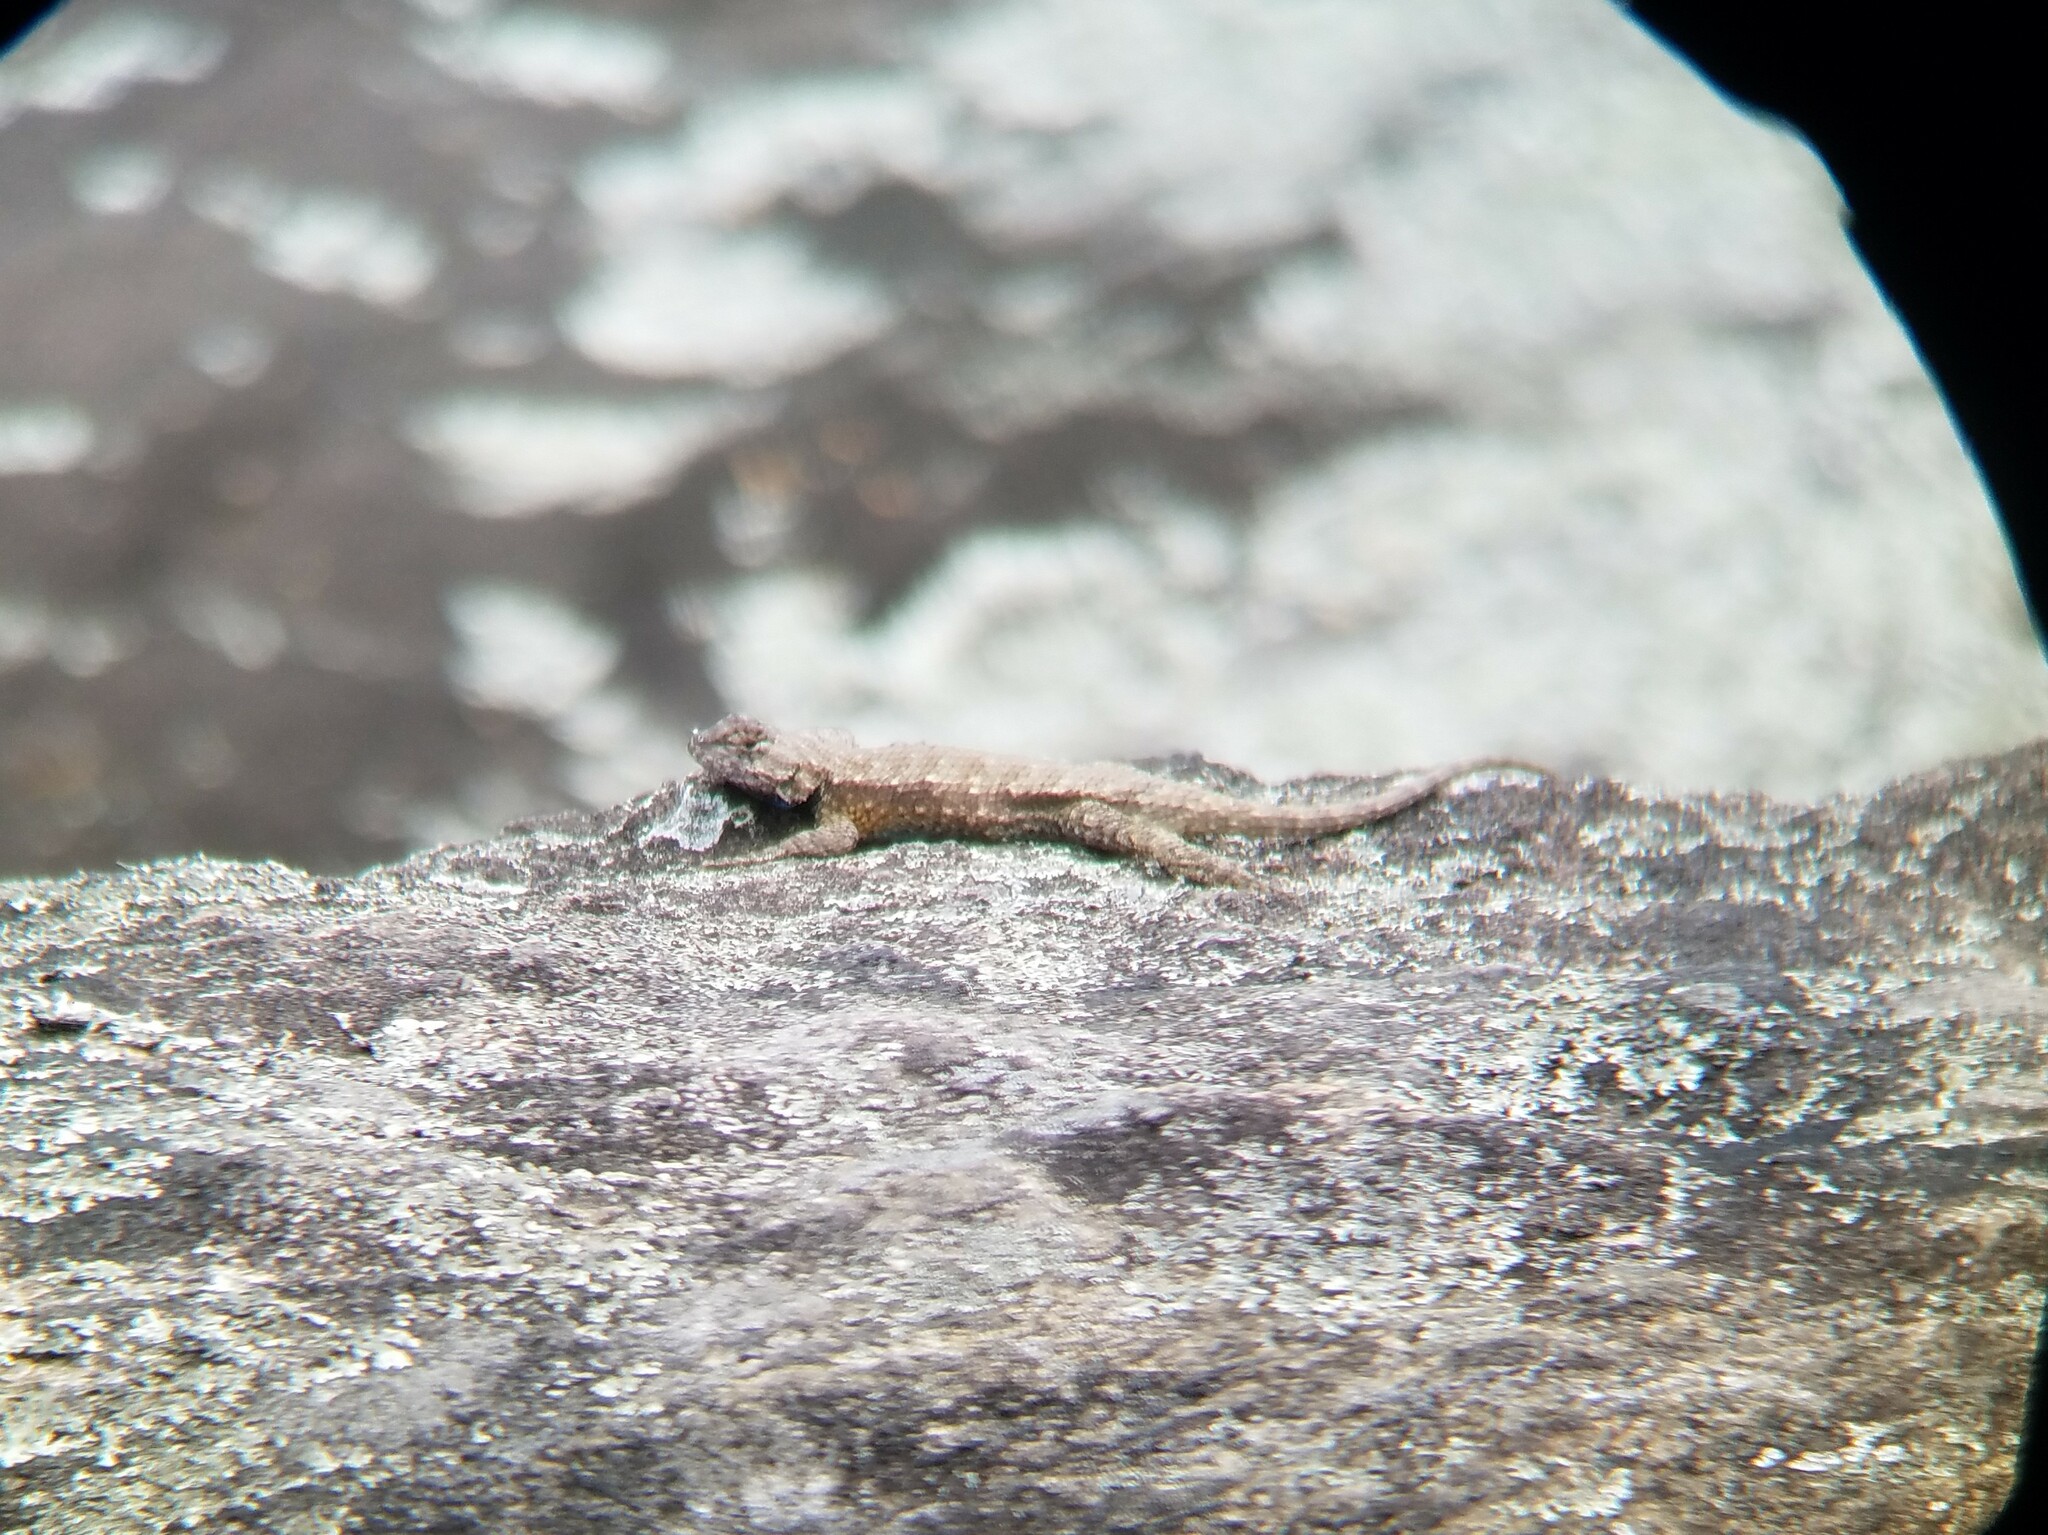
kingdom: Animalia
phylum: Chordata
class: Squamata
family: Phrynosomatidae
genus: Sceloporus
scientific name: Sceloporus undulatus
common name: Eastern fence lizard
